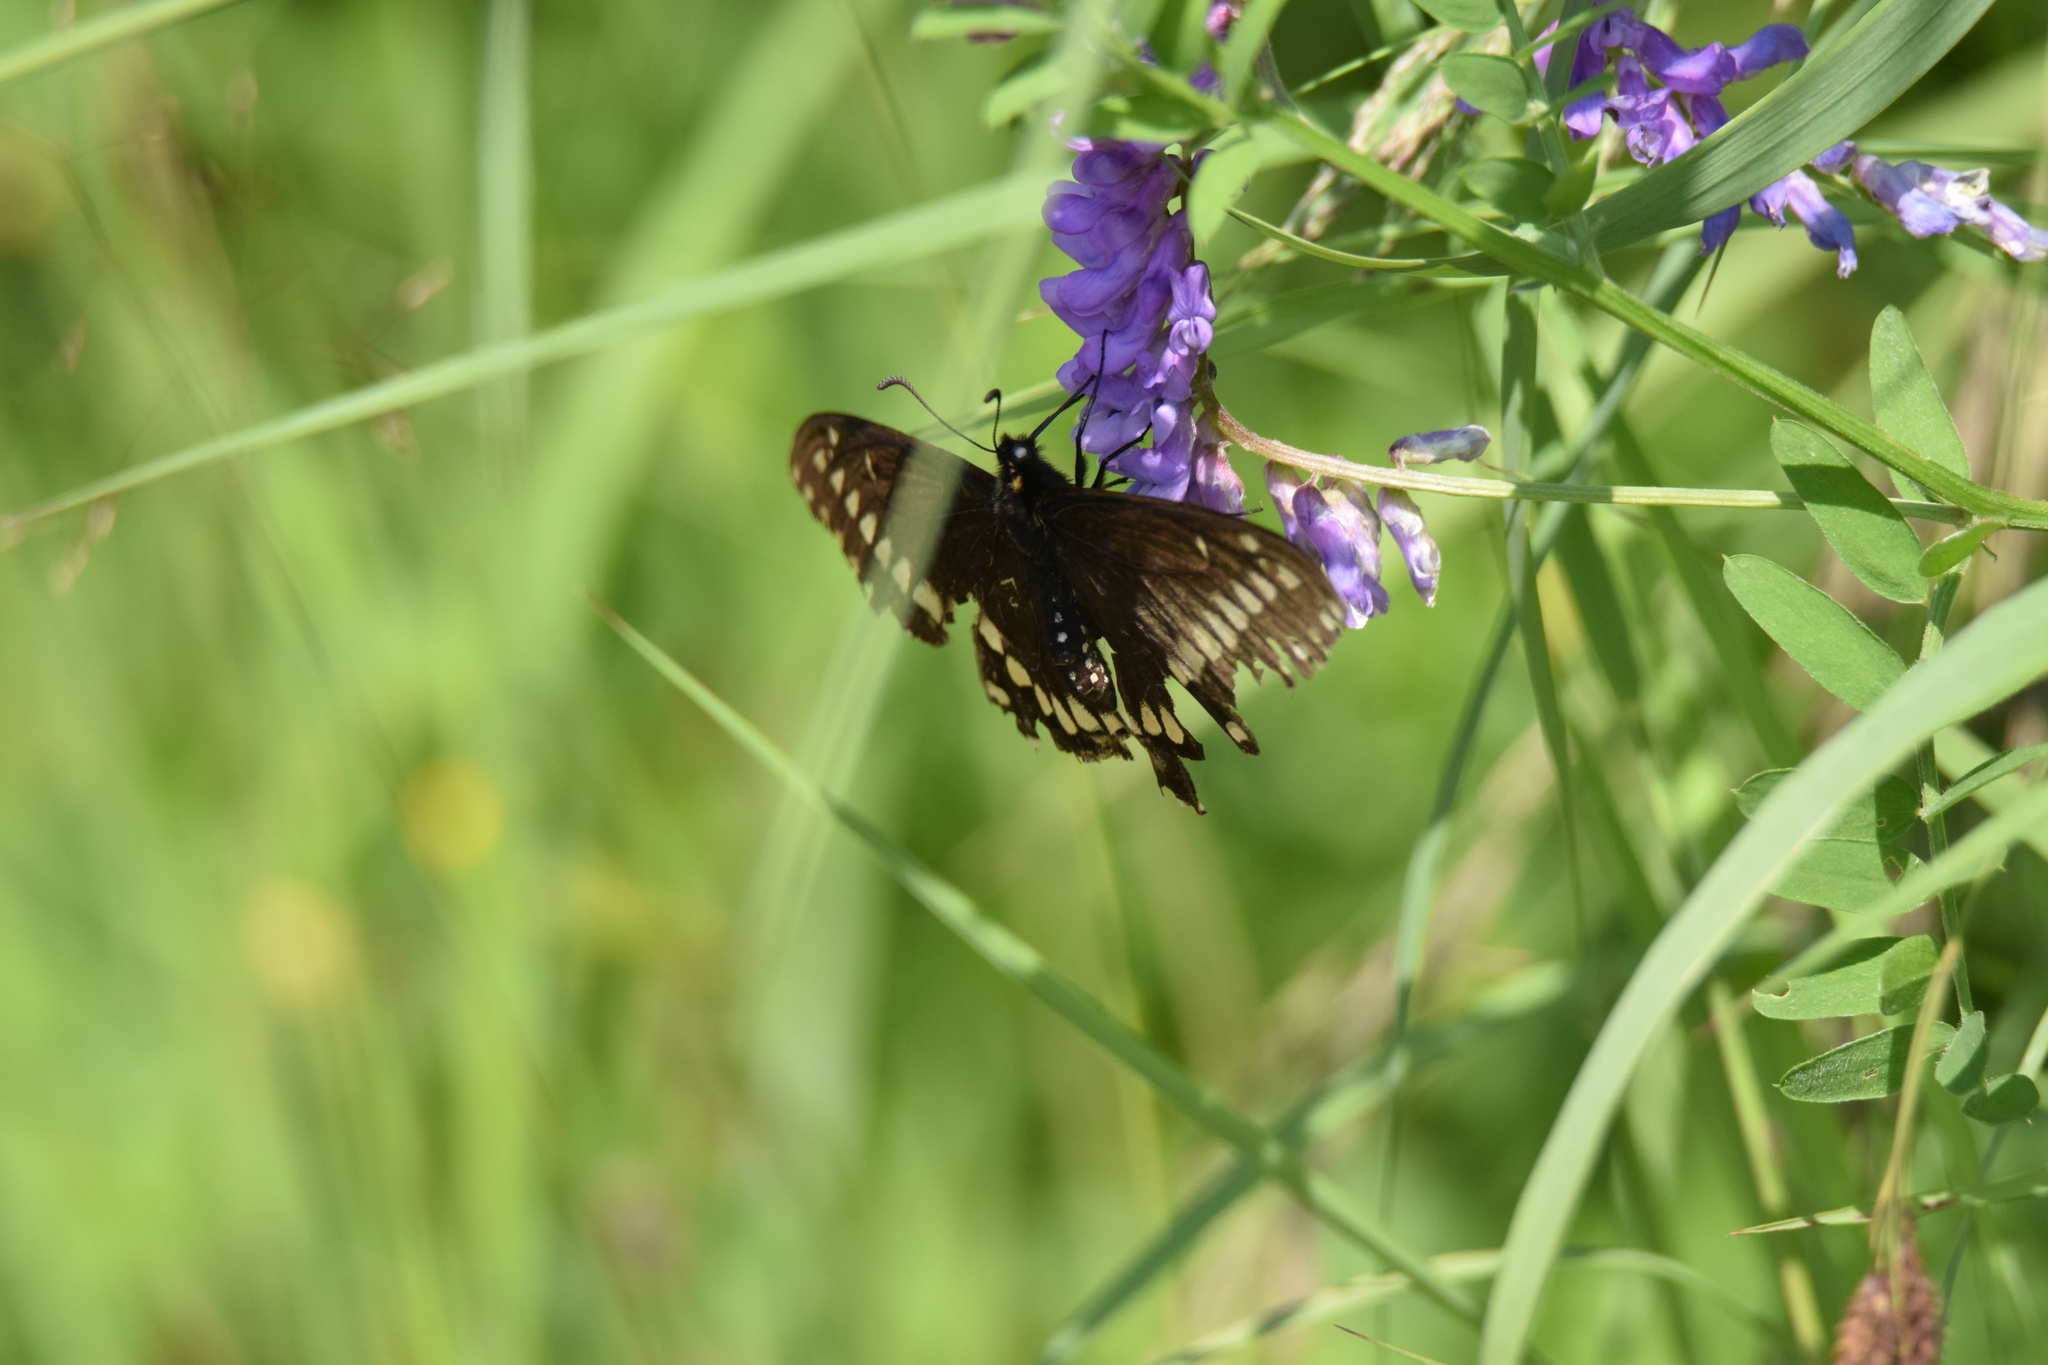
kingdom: Animalia
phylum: Arthropoda
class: Insecta
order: Lepidoptera
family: Papilionidae
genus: Papilio
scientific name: Papilio brevicauda
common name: Short tailed swallowtail
